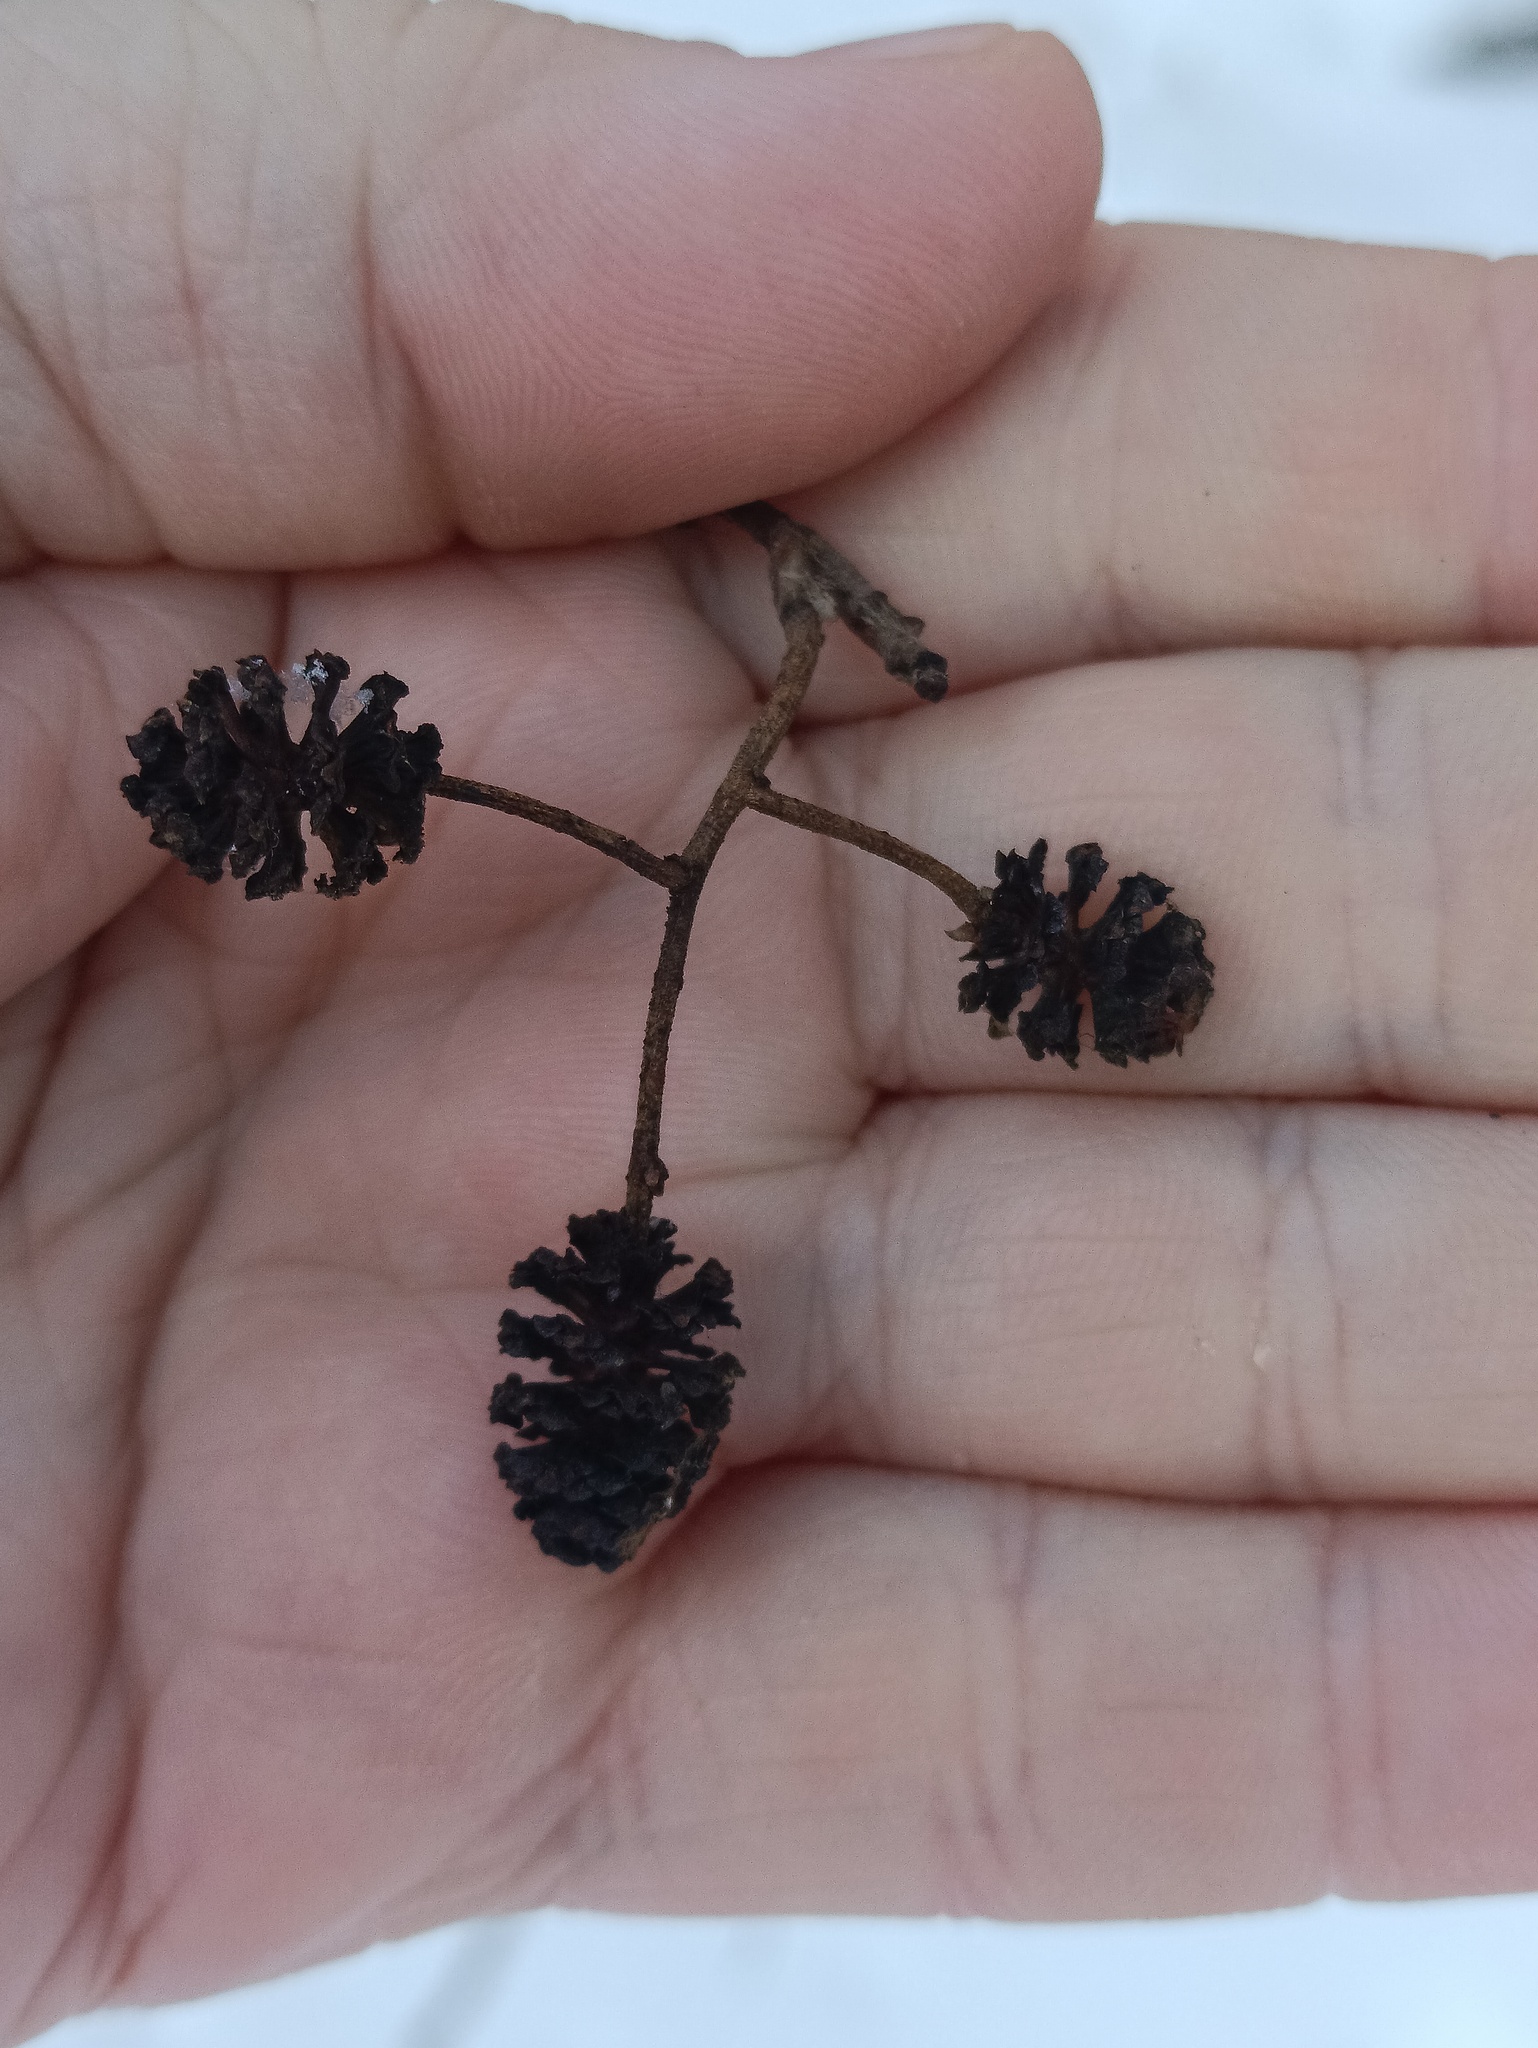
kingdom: Plantae
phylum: Tracheophyta
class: Magnoliopsida
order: Fagales
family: Betulaceae
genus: Alnus
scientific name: Alnus glutinosa
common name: Black alder
